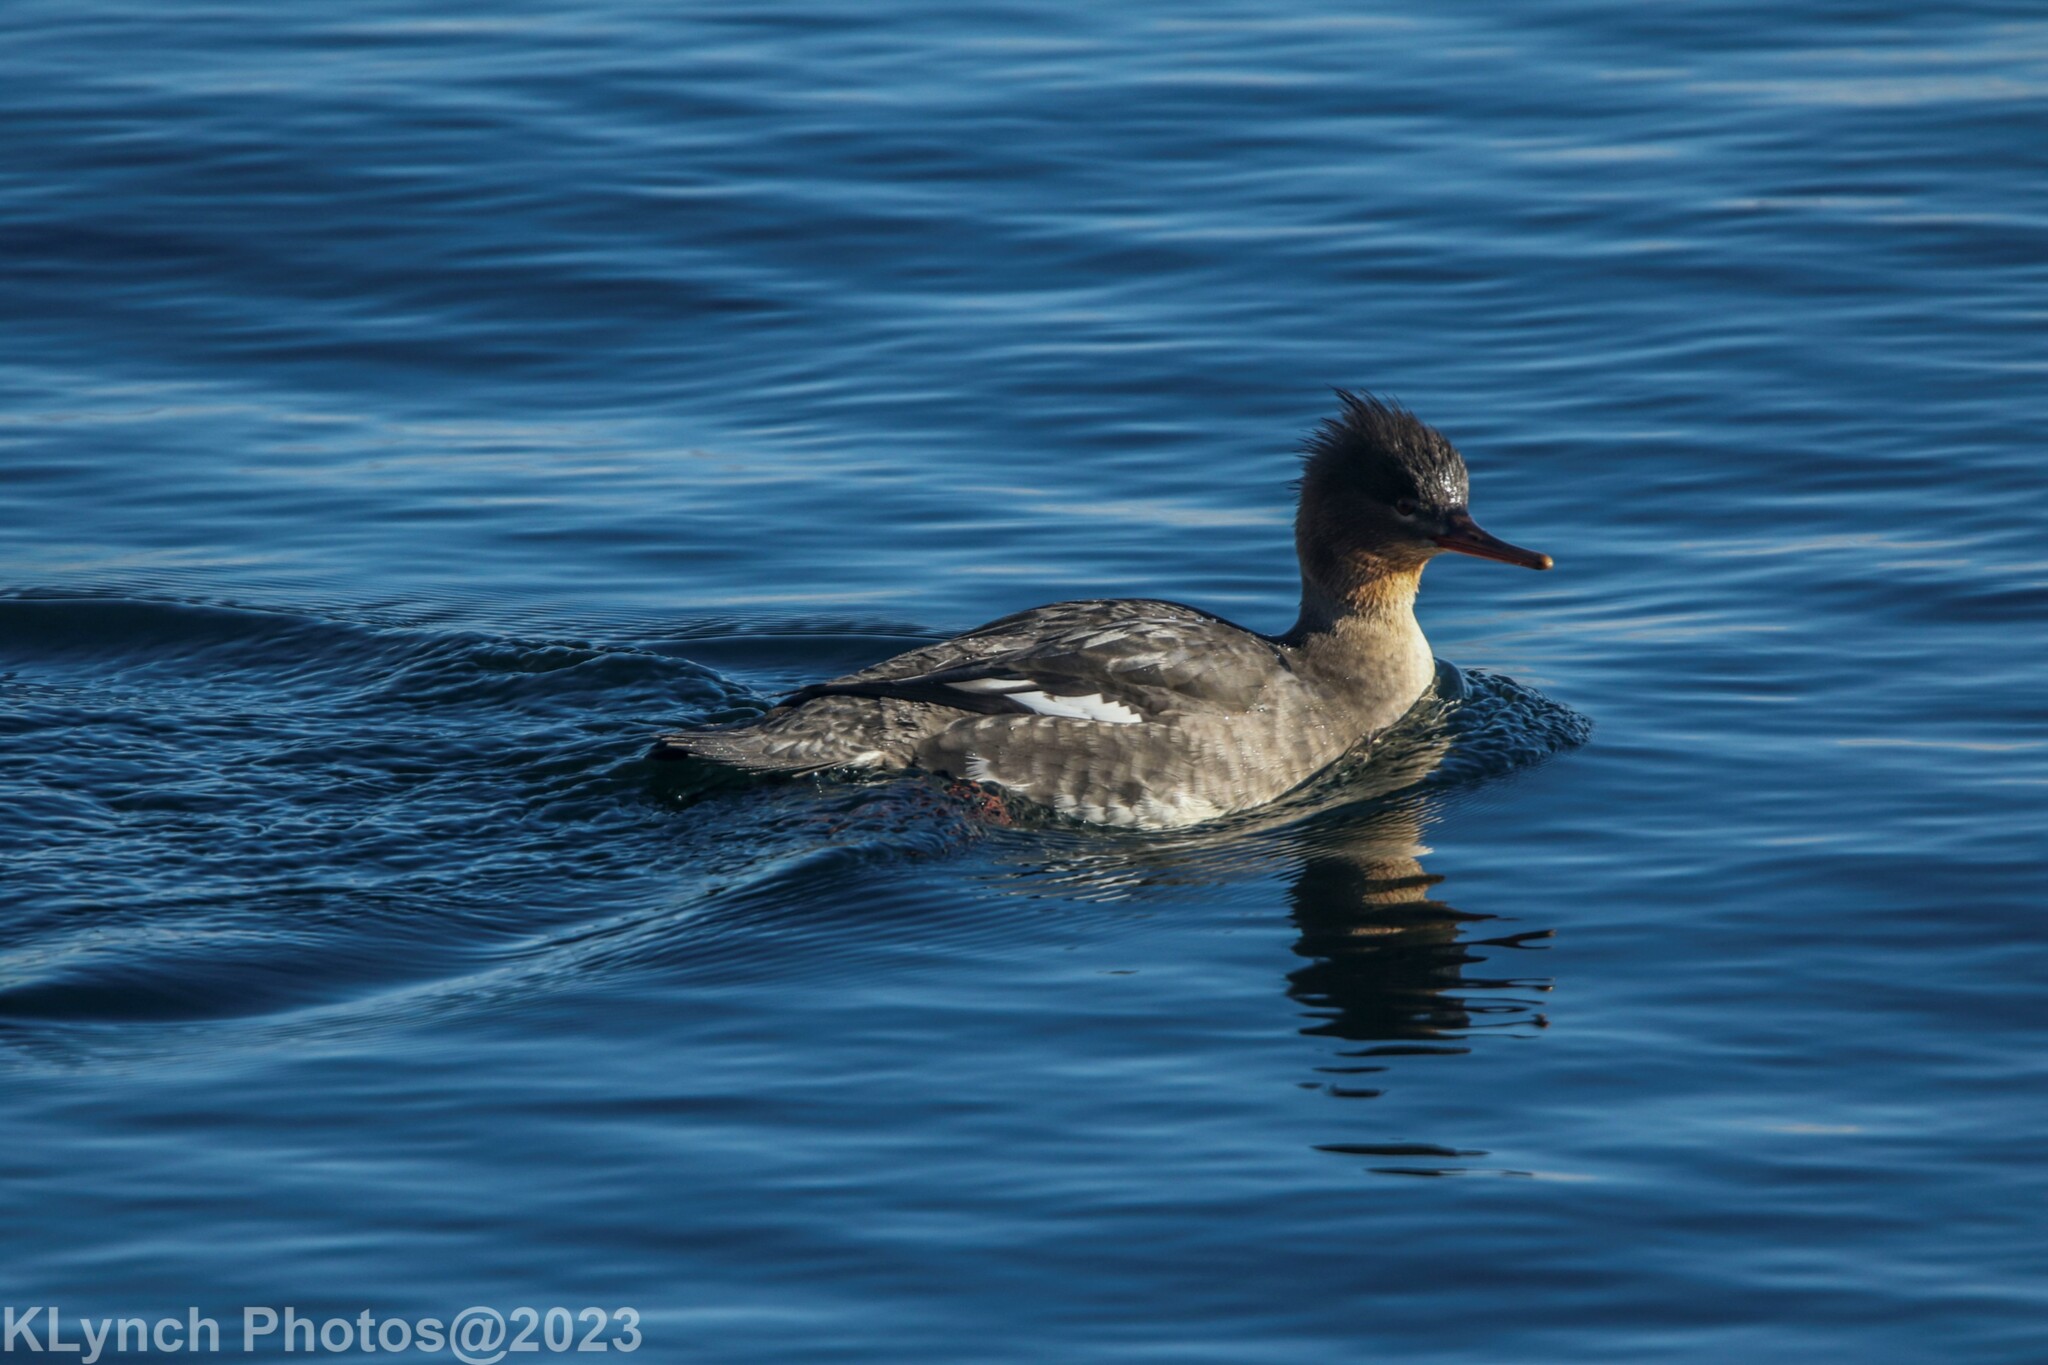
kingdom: Animalia
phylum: Chordata
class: Aves
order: Anseriformes
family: Anatidae
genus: Mergus
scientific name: Mergus serrator
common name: Red-breasted merganser
